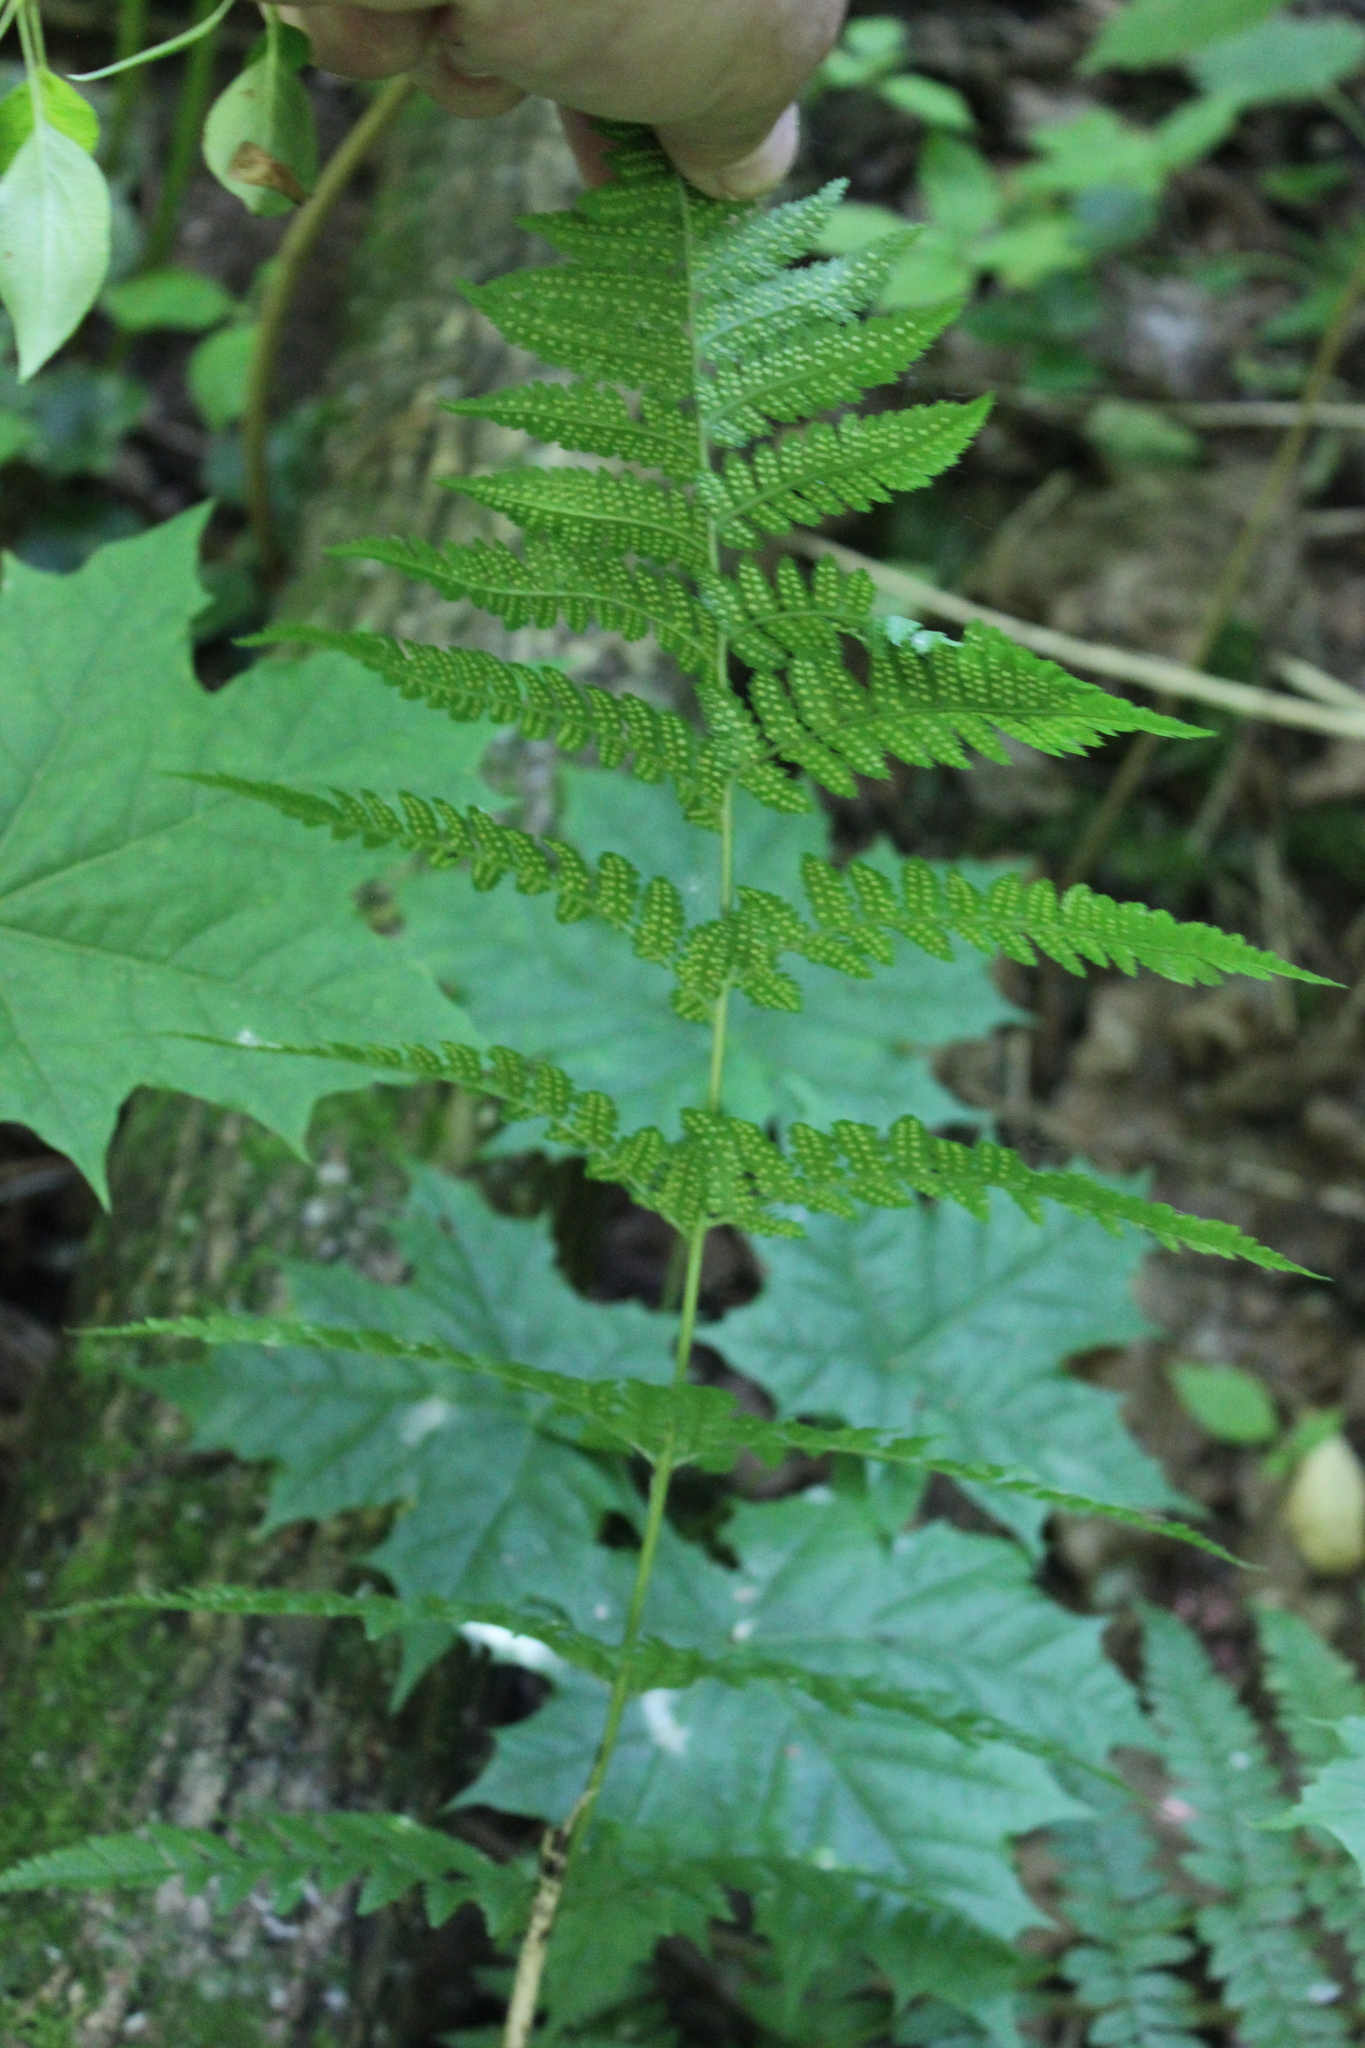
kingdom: Plantae
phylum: Tracheophyta
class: Polypodiopsida
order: Polypodiales
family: Dryopteridaceae
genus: Dryopteris
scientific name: Dryopteris carthusiana
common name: Narrow buckler-fern
